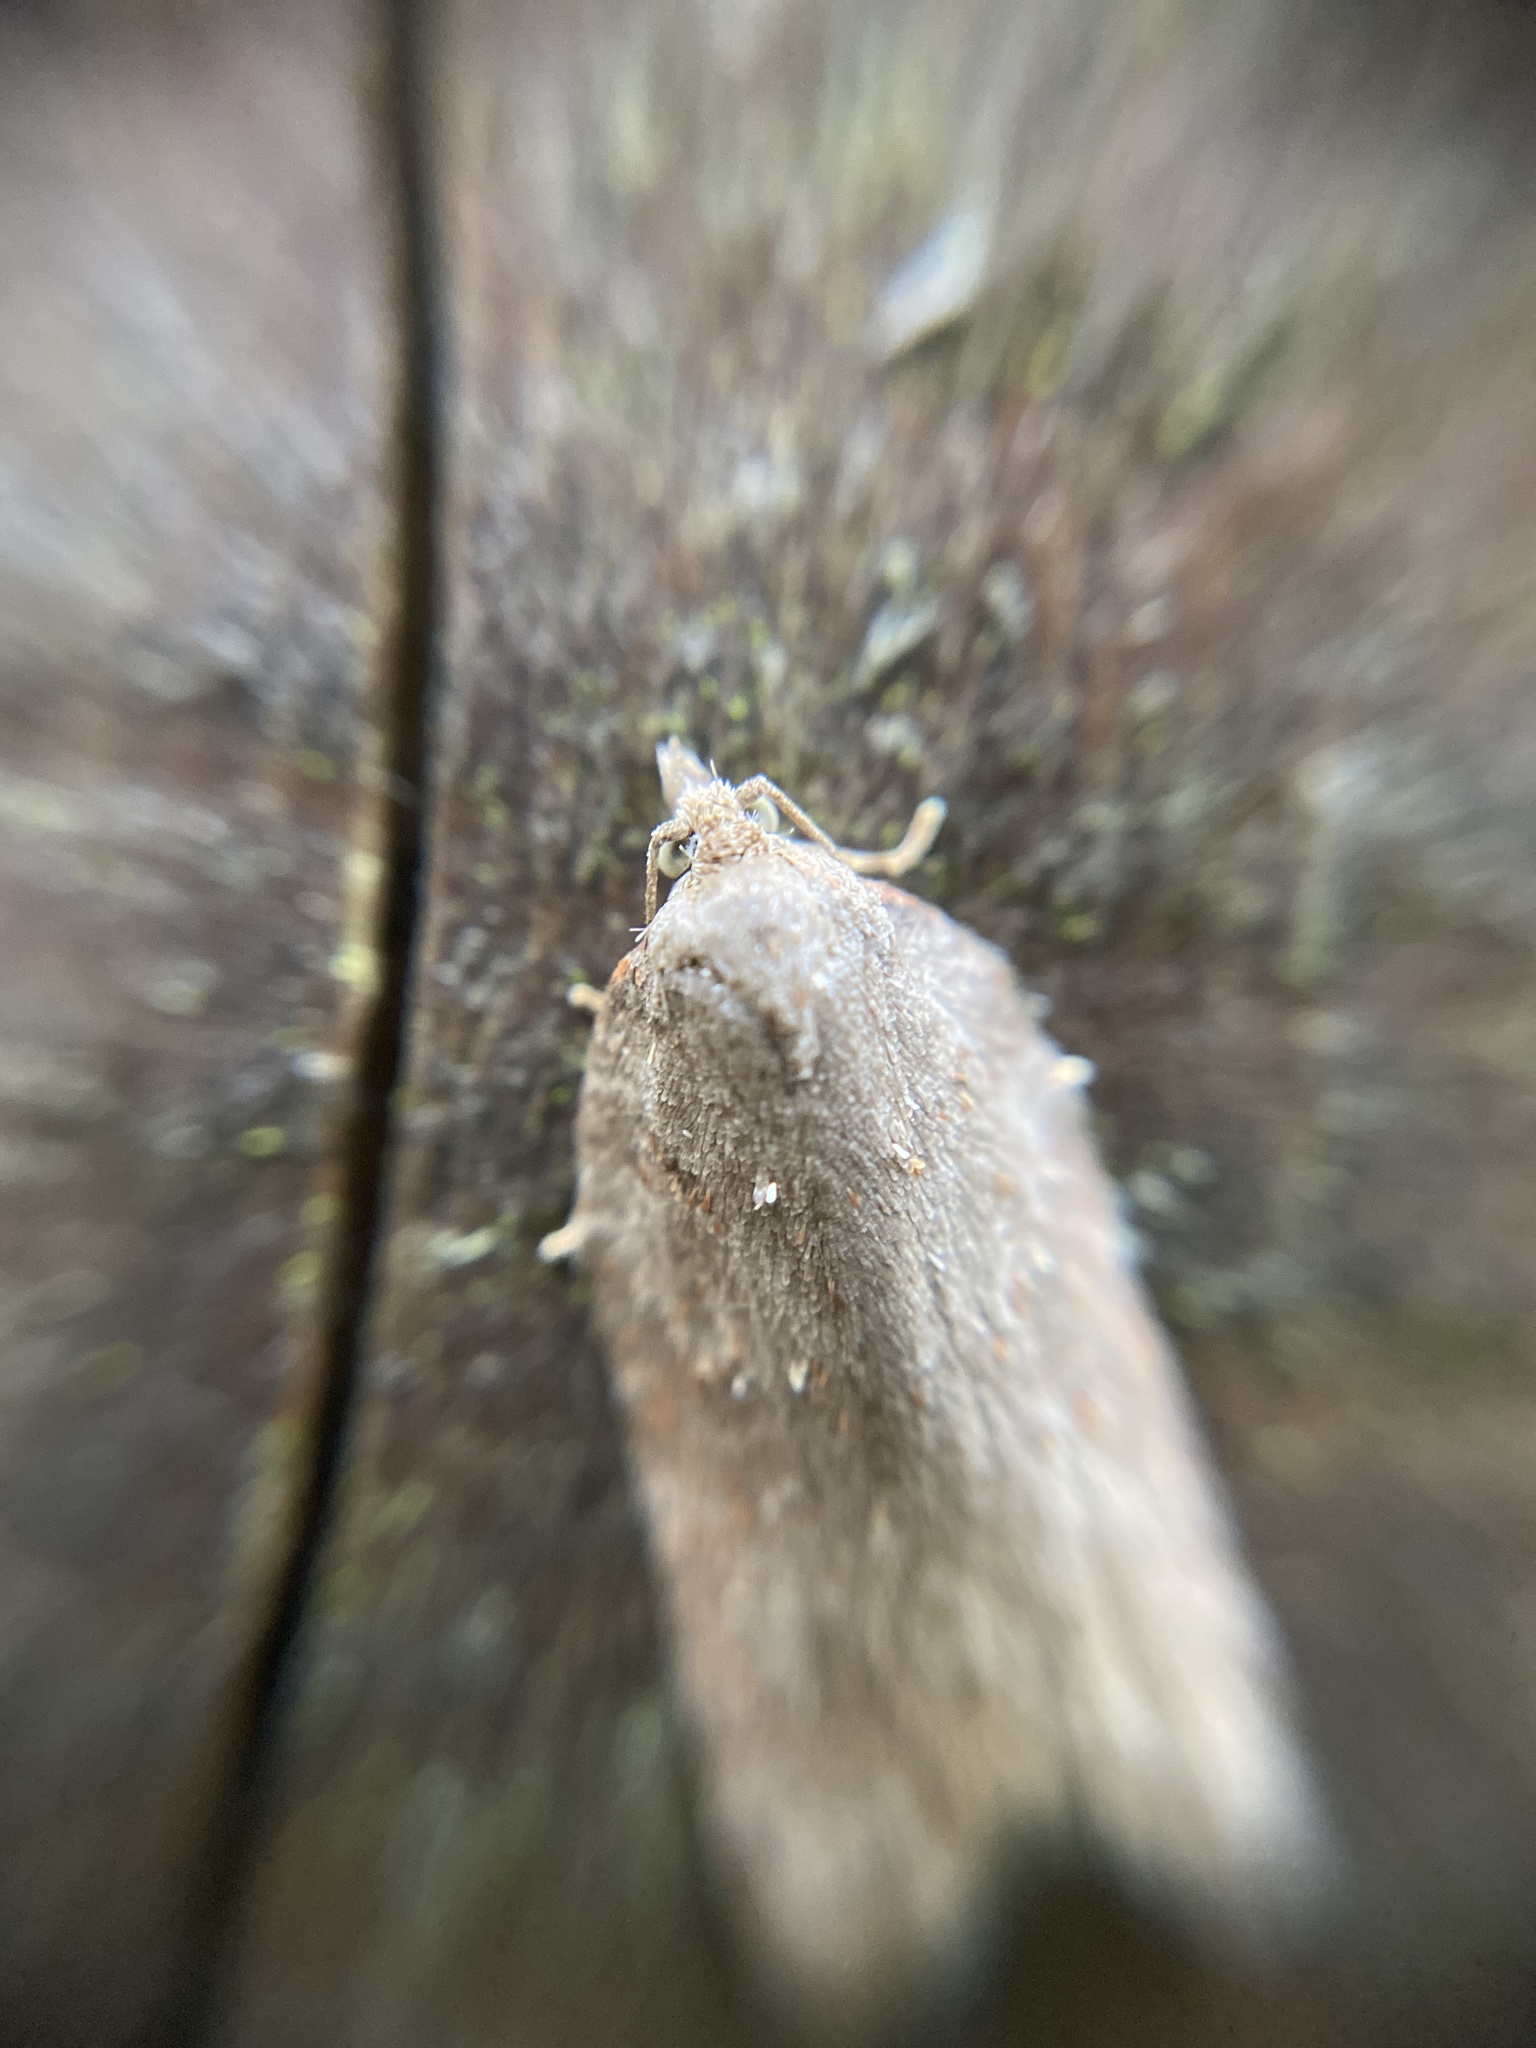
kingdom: Animalia
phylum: Arthropoda
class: Insecta
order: Lepidoptera
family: Tortricidae
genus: Acleris
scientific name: Acleris sparsana
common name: Ashy button
